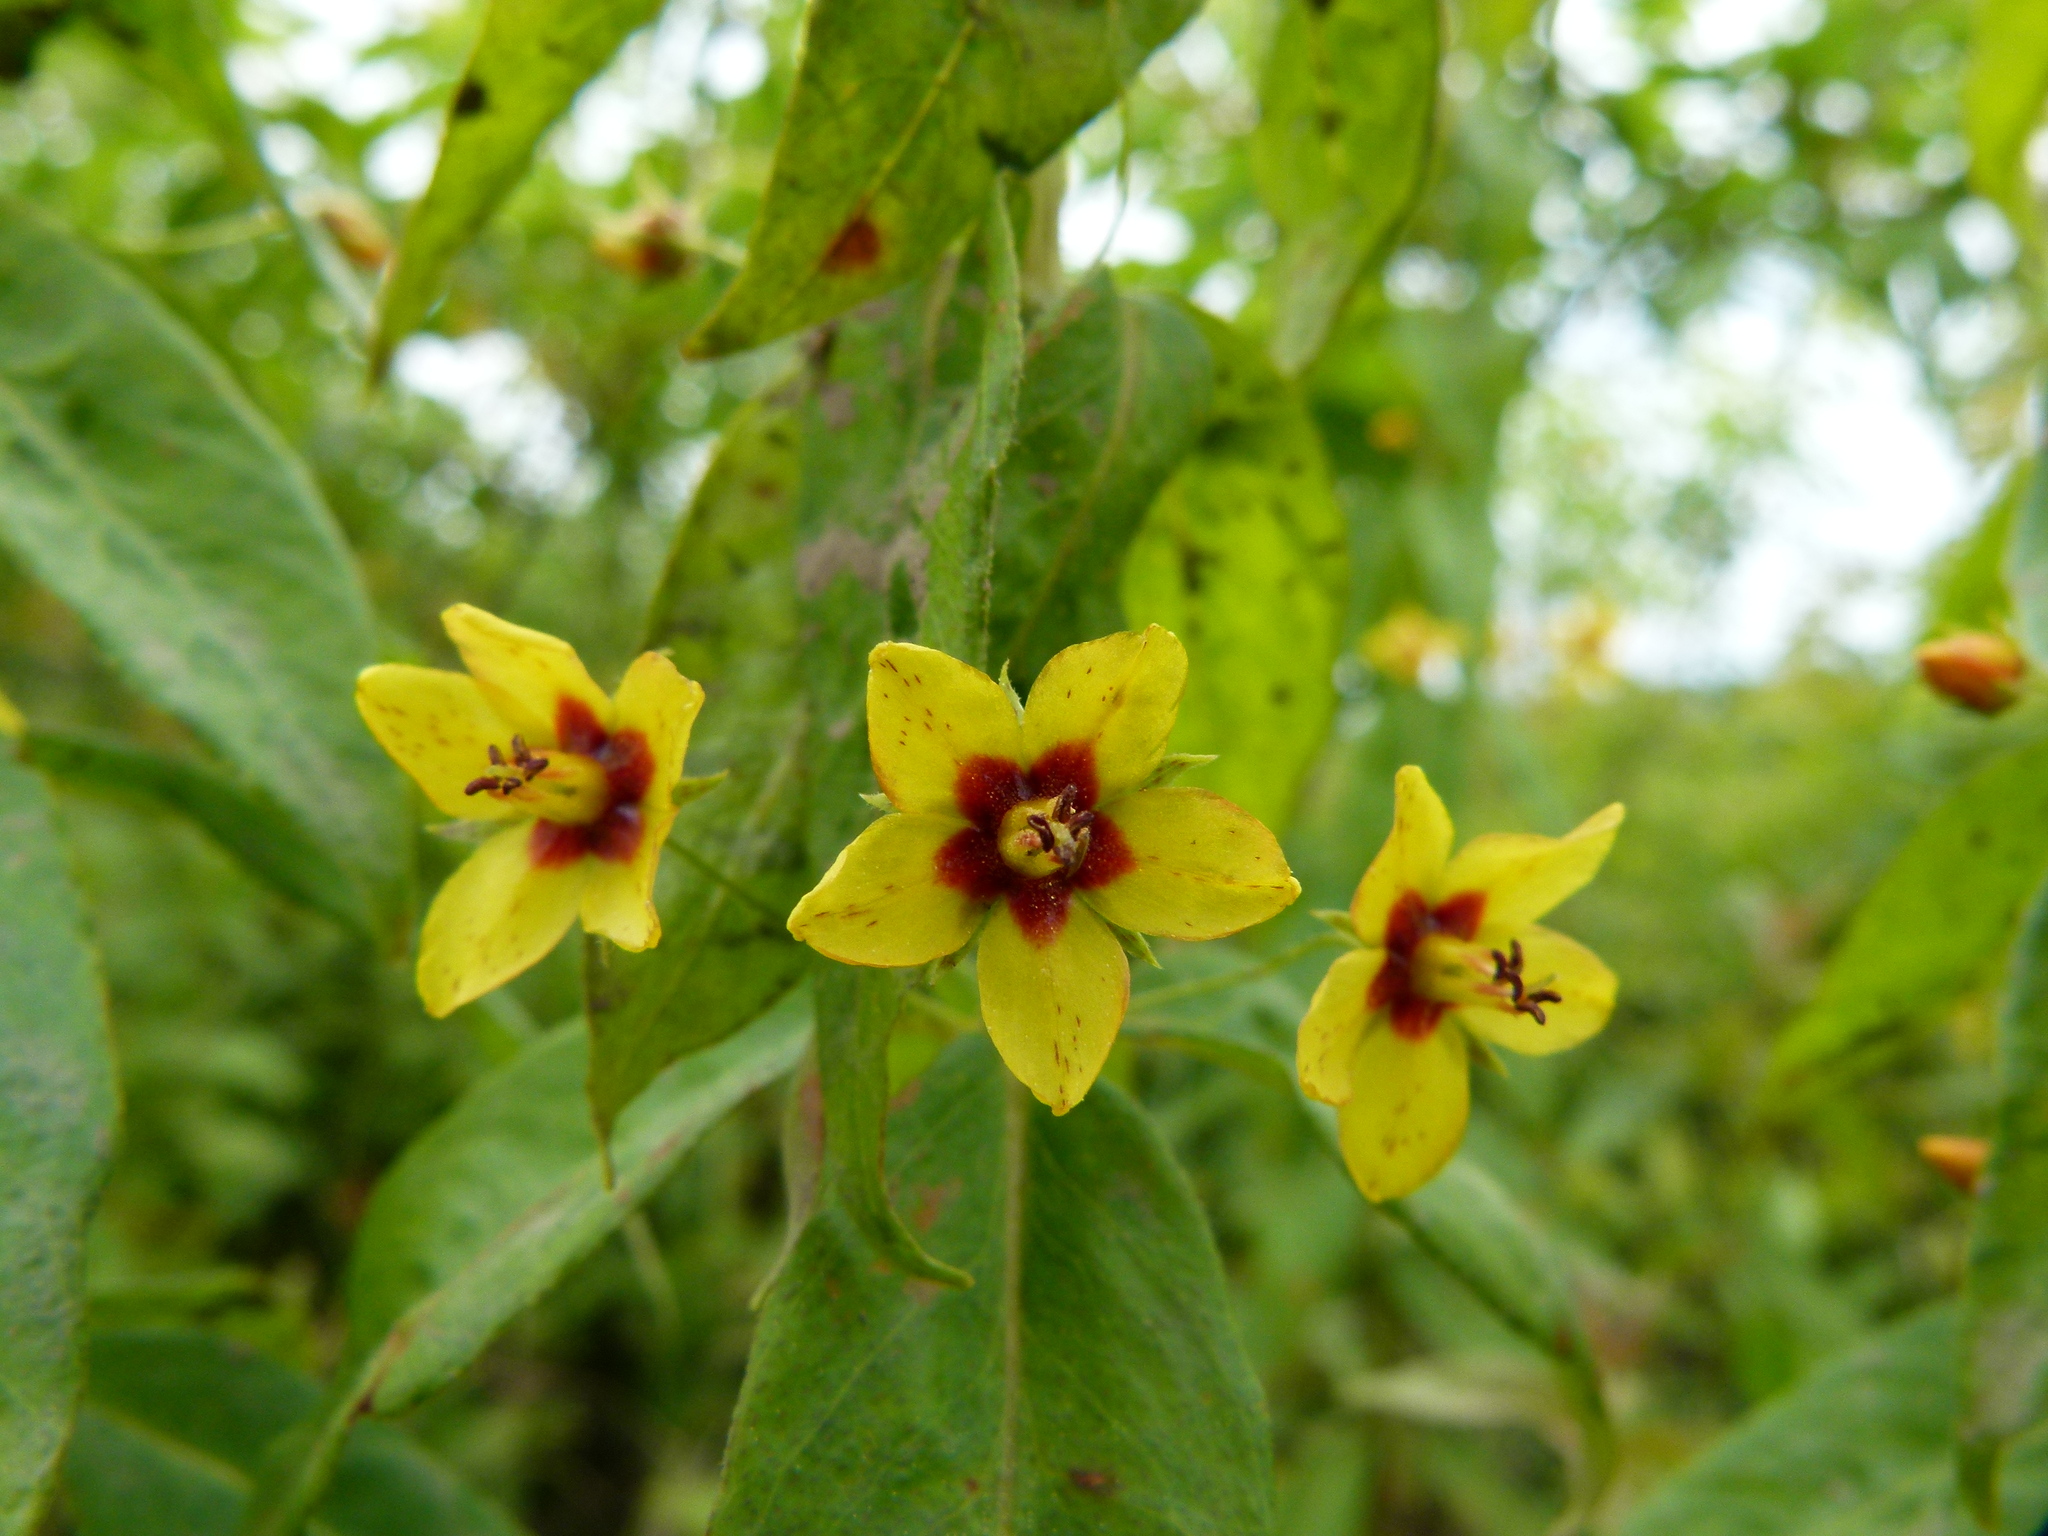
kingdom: Plantae
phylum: Tracheophyta
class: Magnoliopsida
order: Ericales
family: Primulaceae
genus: Lysimachia
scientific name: Lysimachia quadrifolia
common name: Whorled loosestrife
